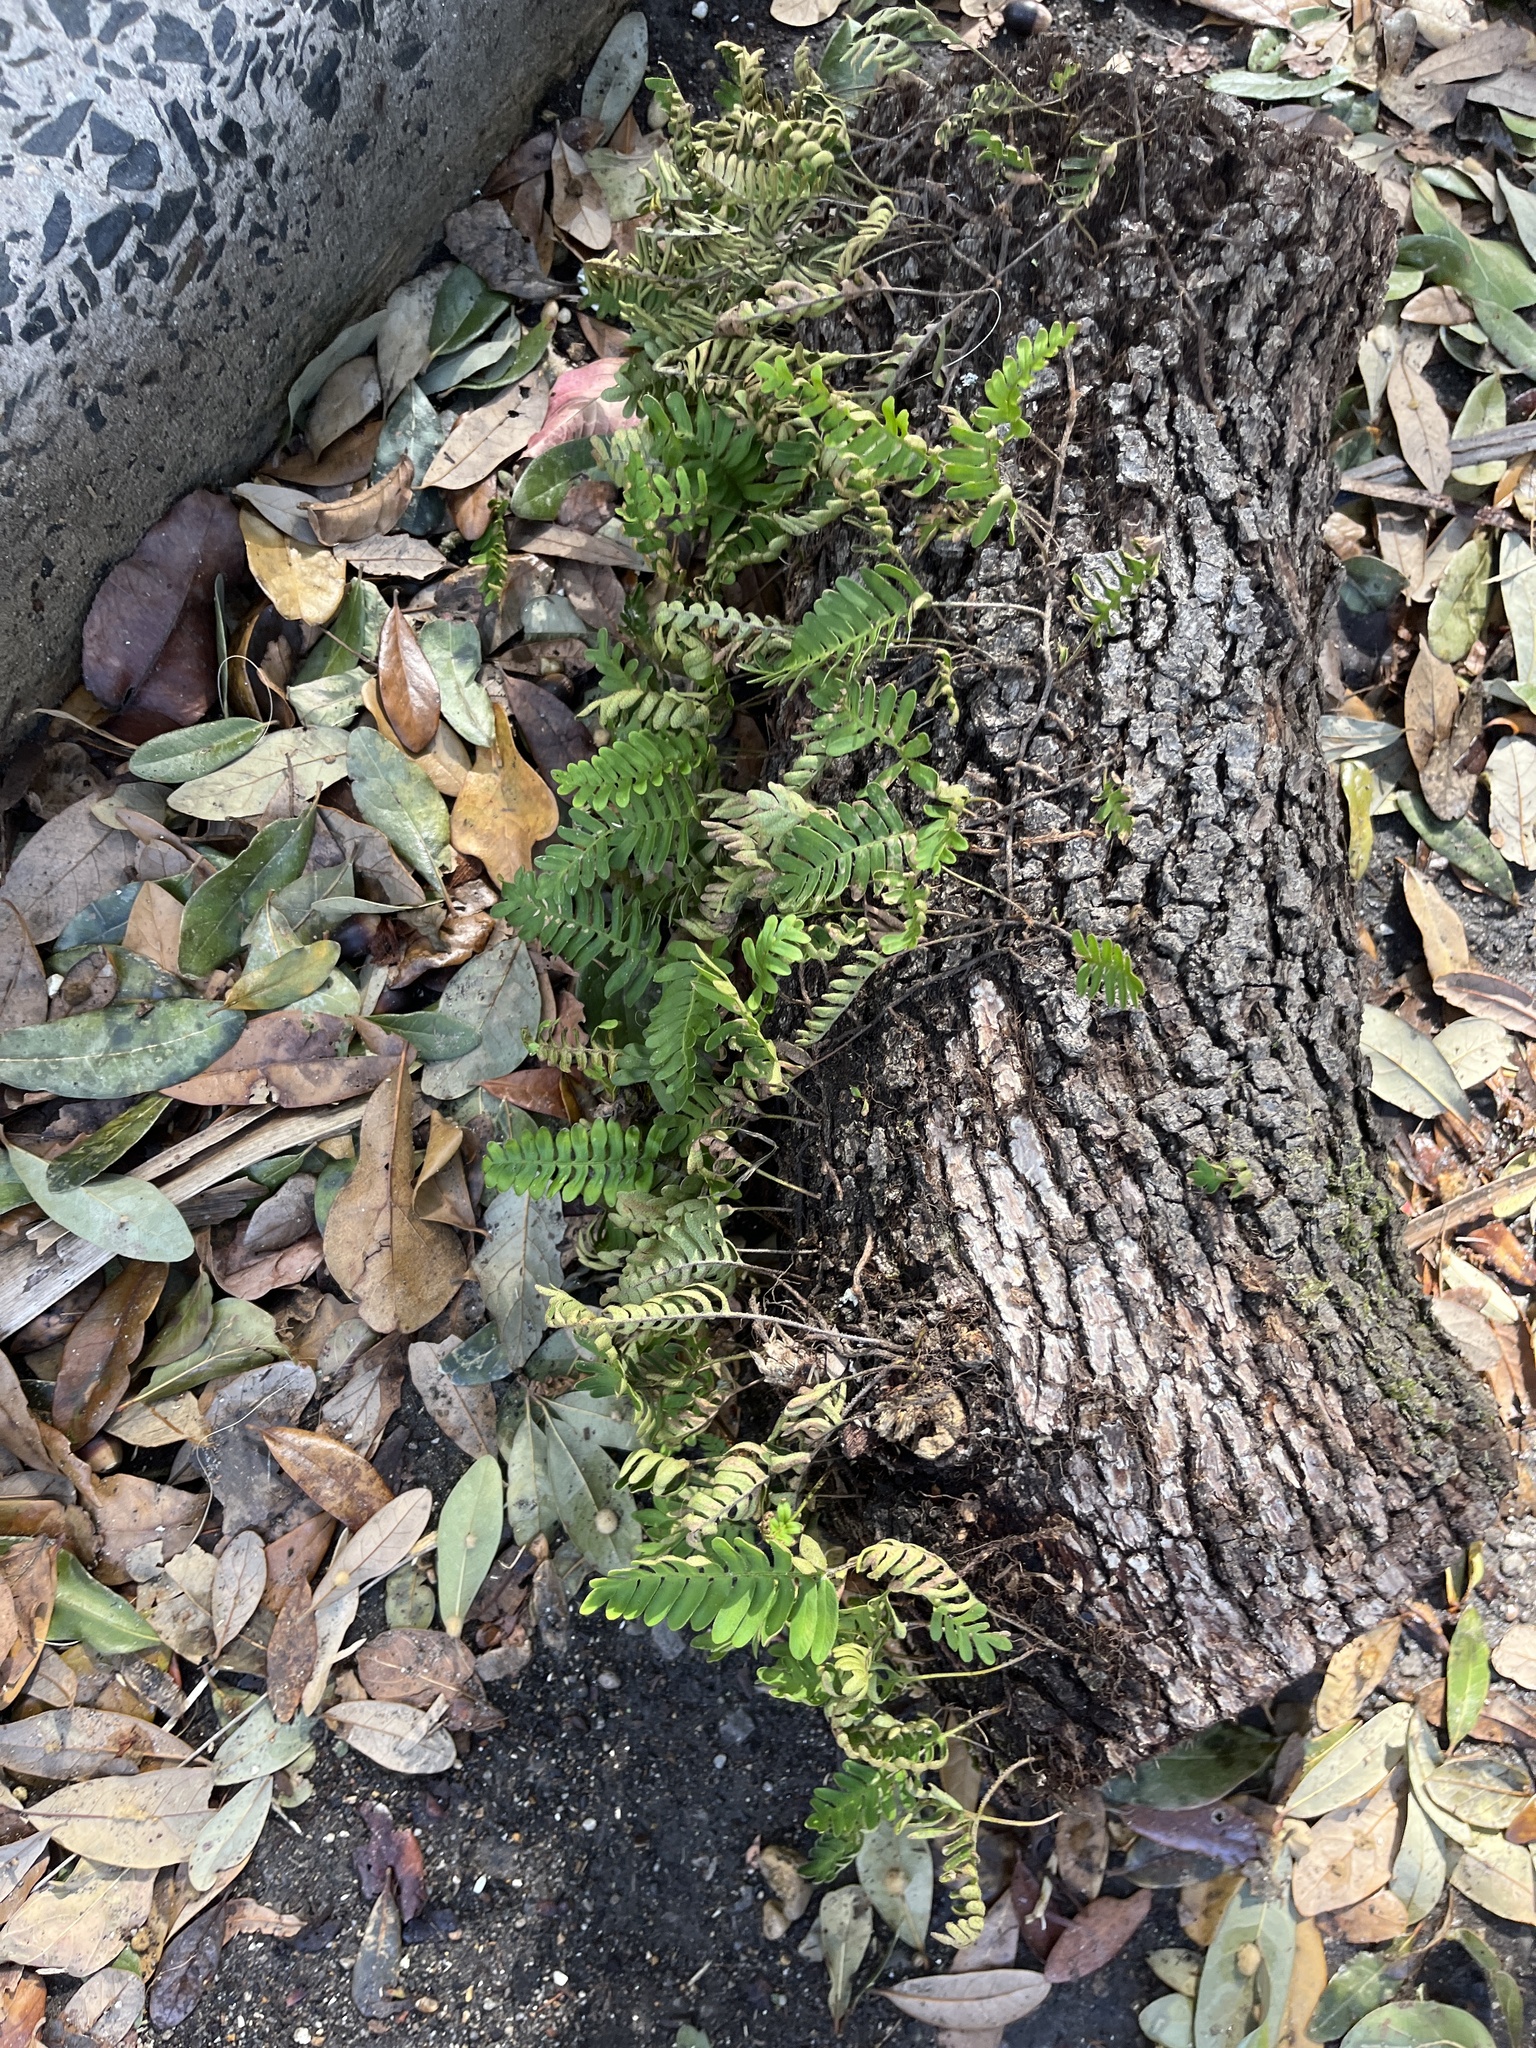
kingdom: Plantae
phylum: Tracheophyta
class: Polypodiopsida
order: Polypodiales
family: Polypodiaceae
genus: Pleopeltis
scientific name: Pleopeltis michauxiana
